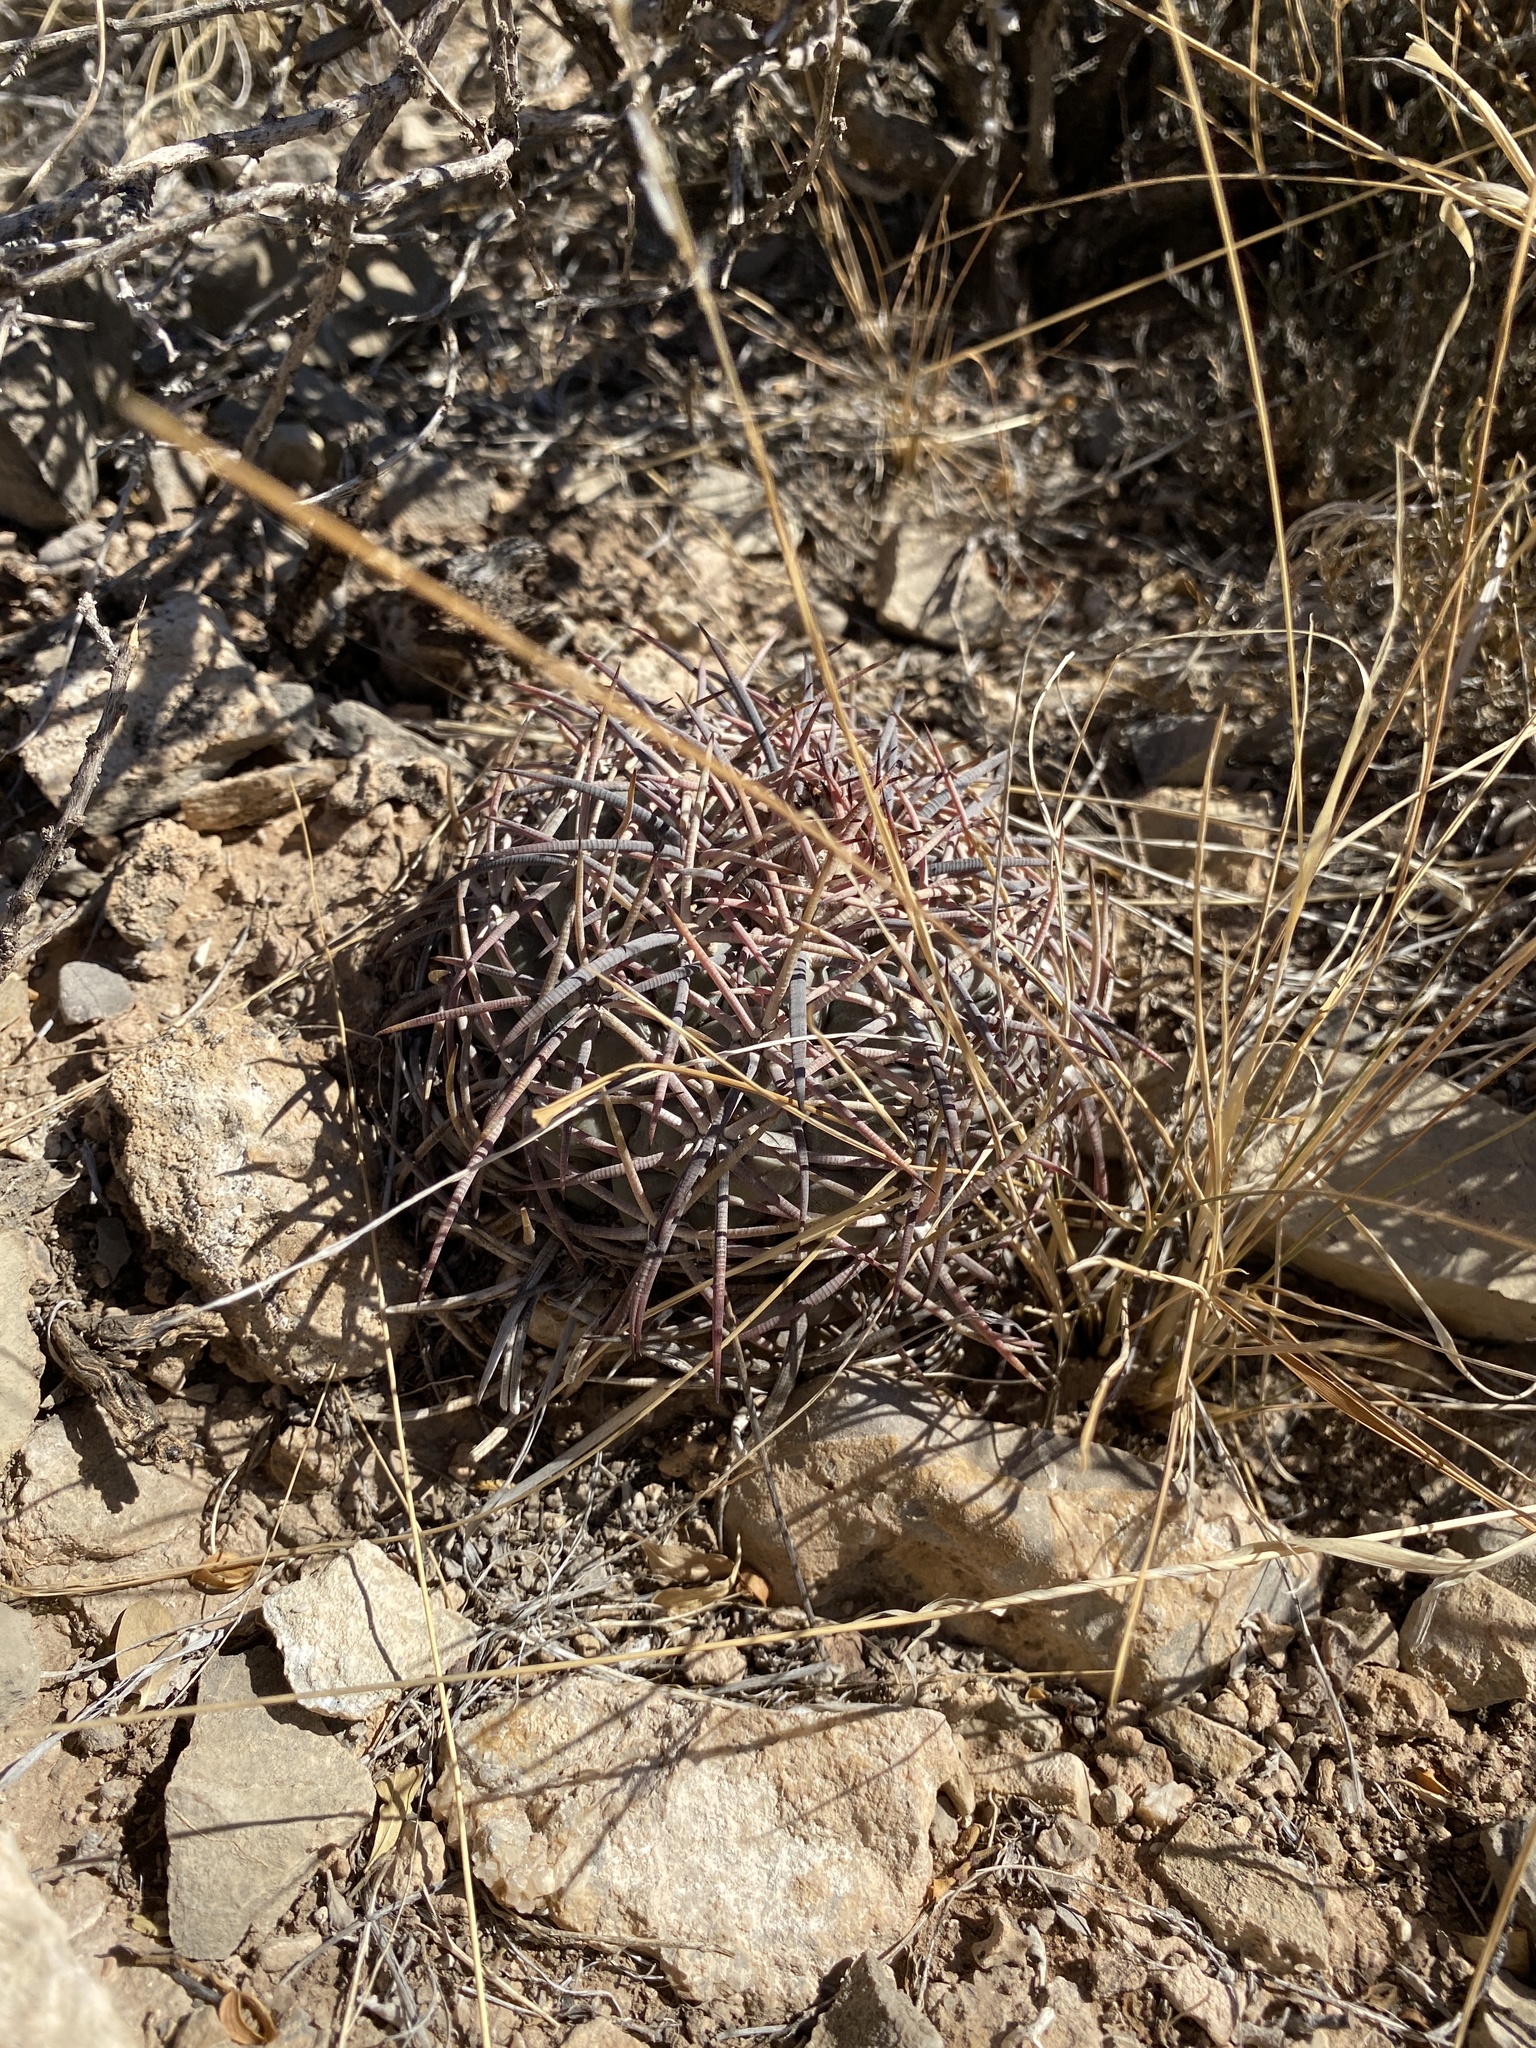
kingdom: Plantae
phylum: Tracheophyta
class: Magnoliopsida
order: Caryophyllales
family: Cactaceae
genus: Echinocactus
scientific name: Echinocactus horizonthalonius
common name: Devilshead
